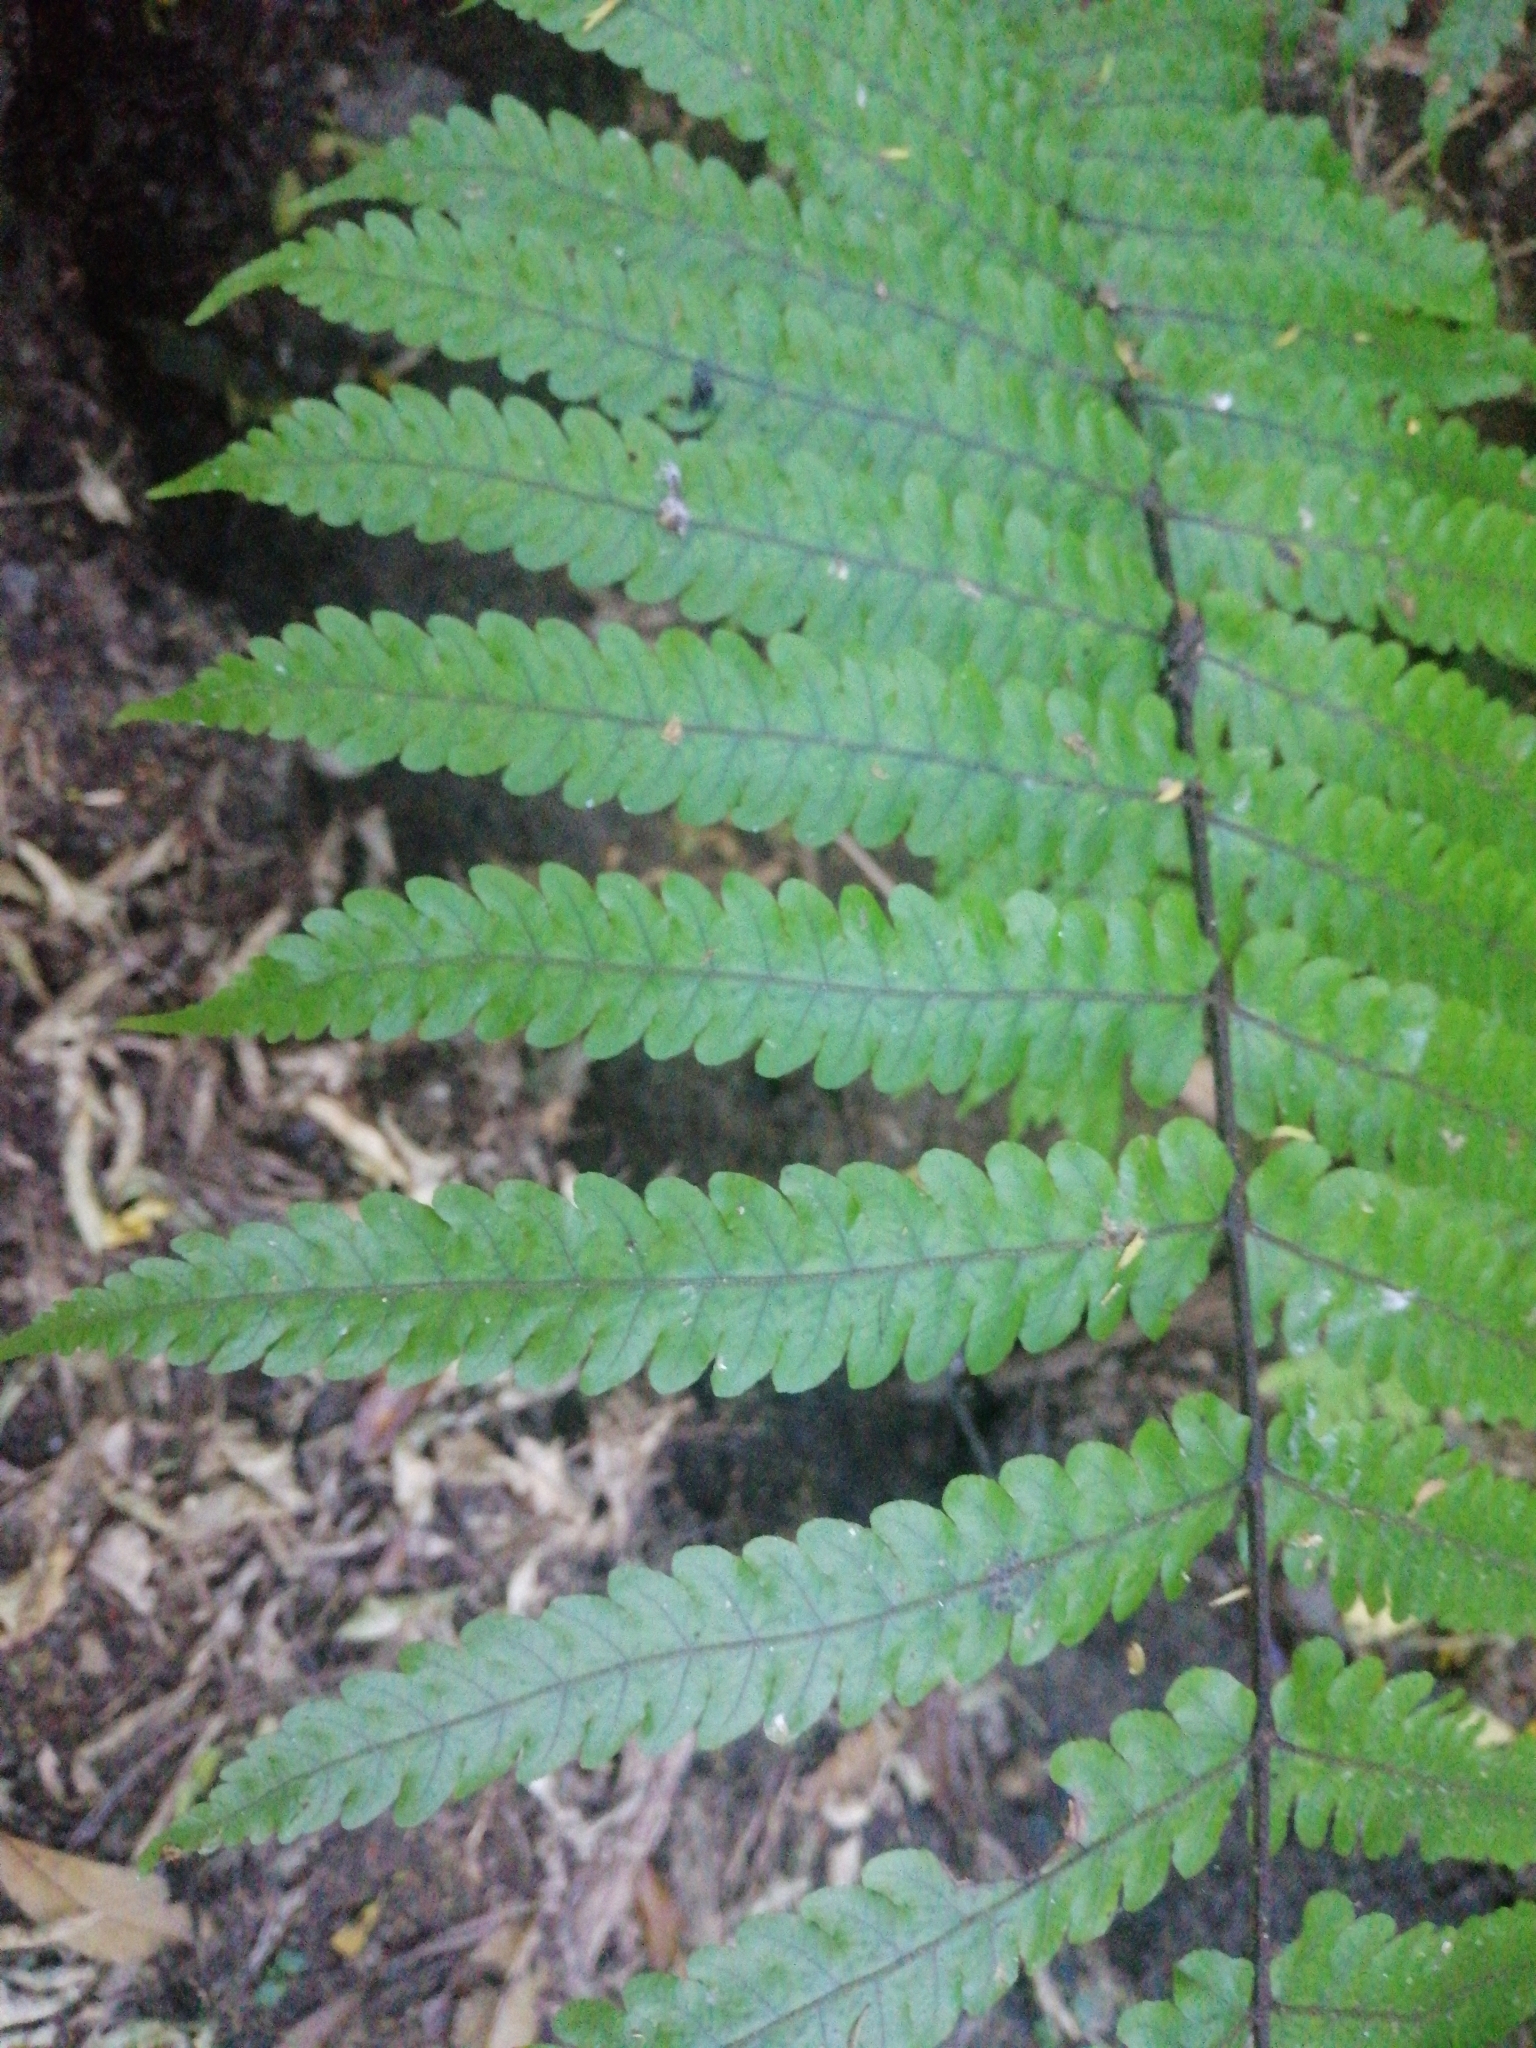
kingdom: Plantae
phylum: Tracheophyta
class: Polypodiopsida
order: Polypodiales
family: Thelypteridaceae
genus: Pakau
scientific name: Pakau pennigera
